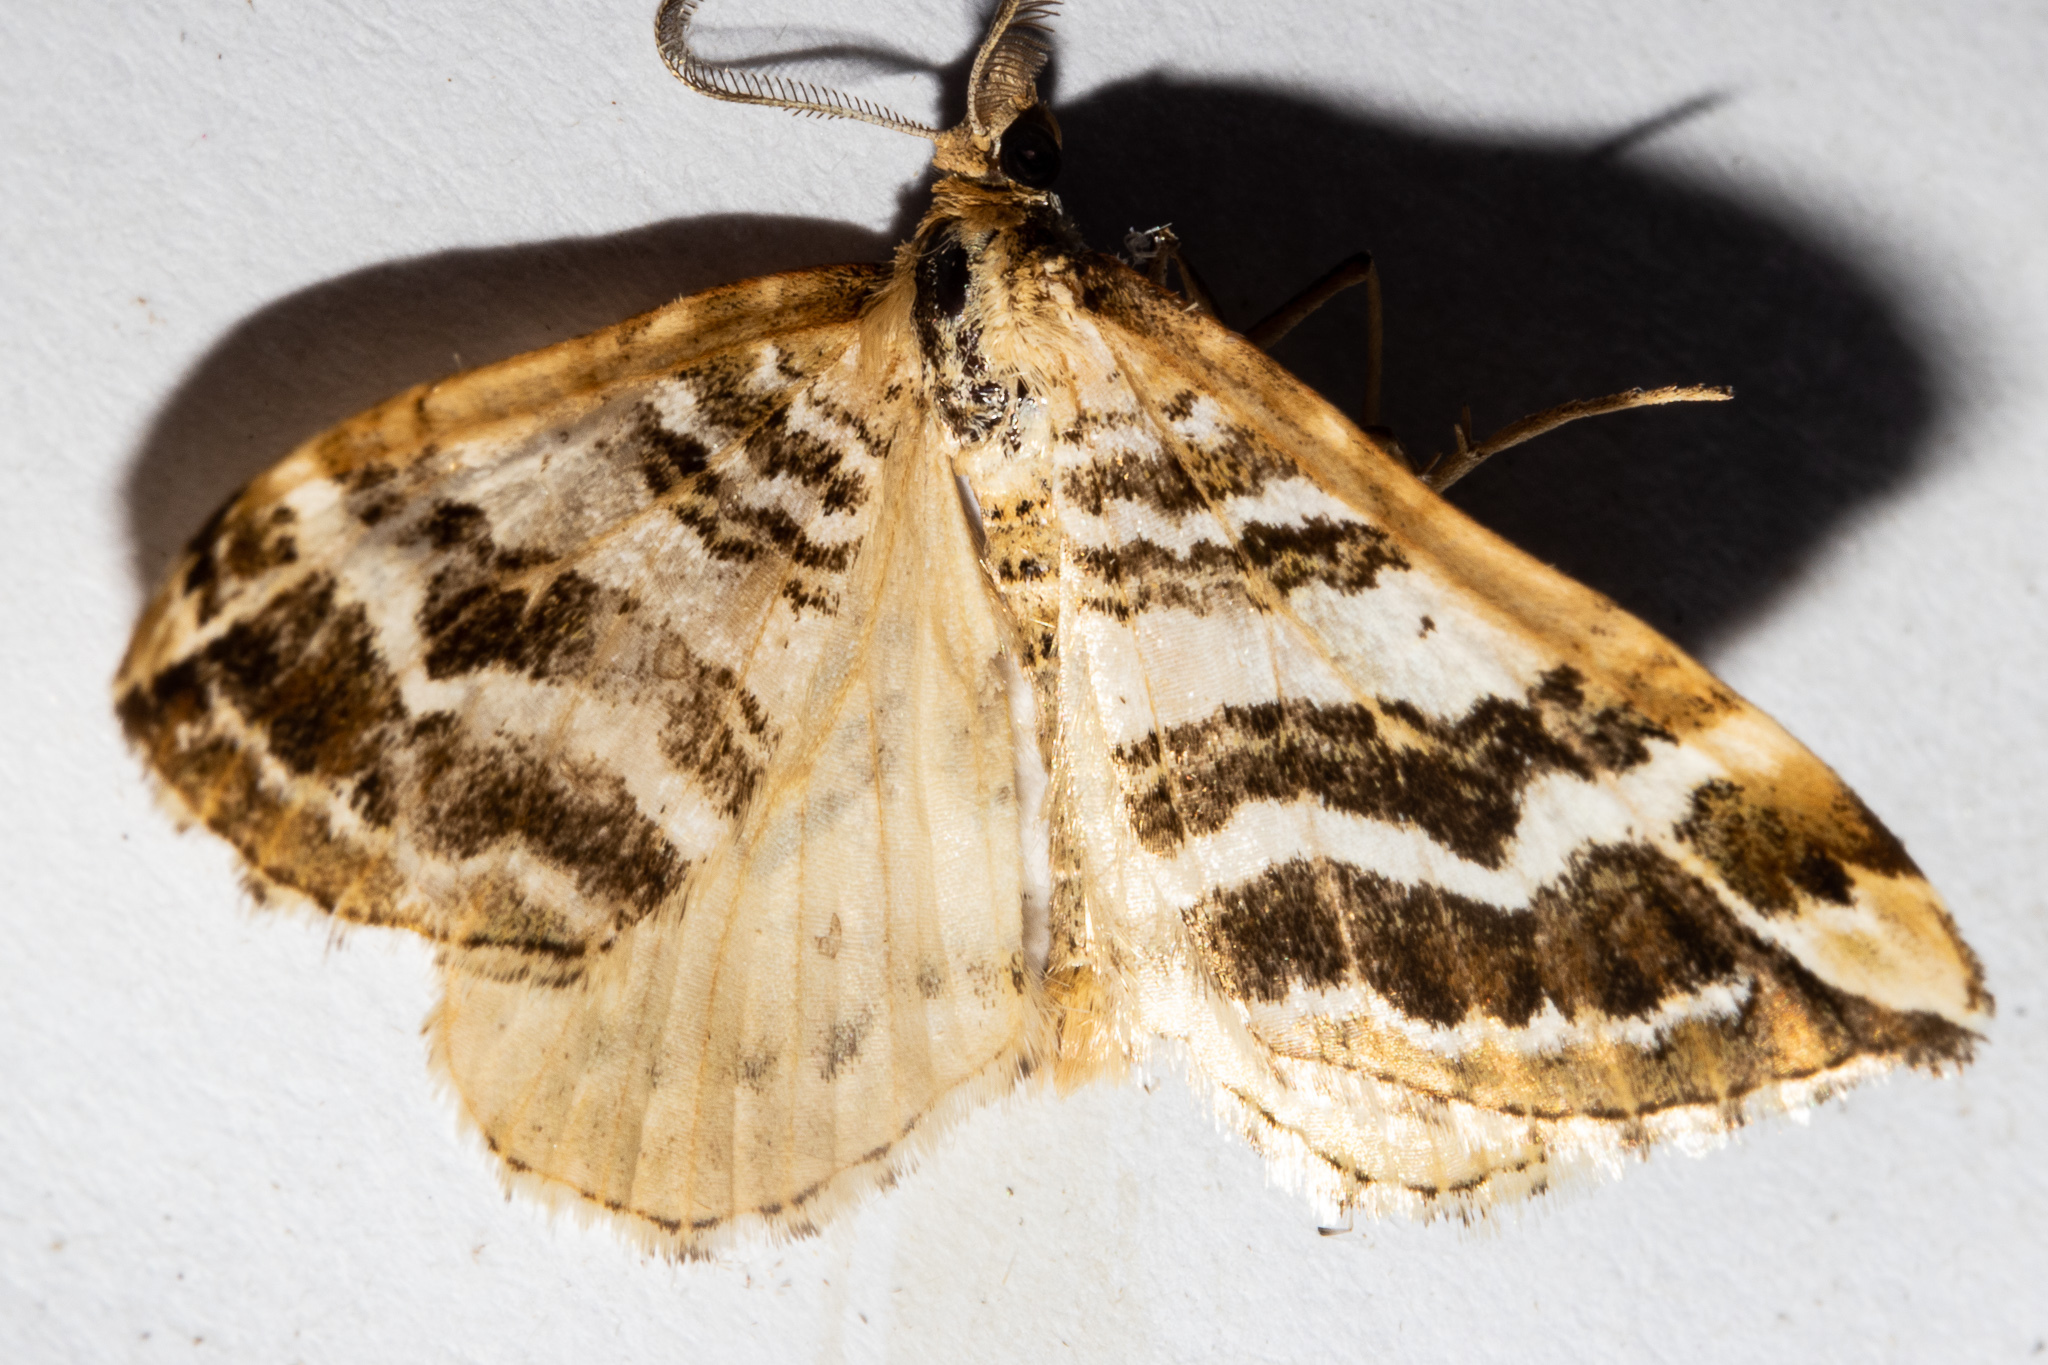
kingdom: Animalia
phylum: Arthropoda
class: Insecta
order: Lepidoptera
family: Geometridae
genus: Asaphodes
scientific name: Asaphodes cataphracta
